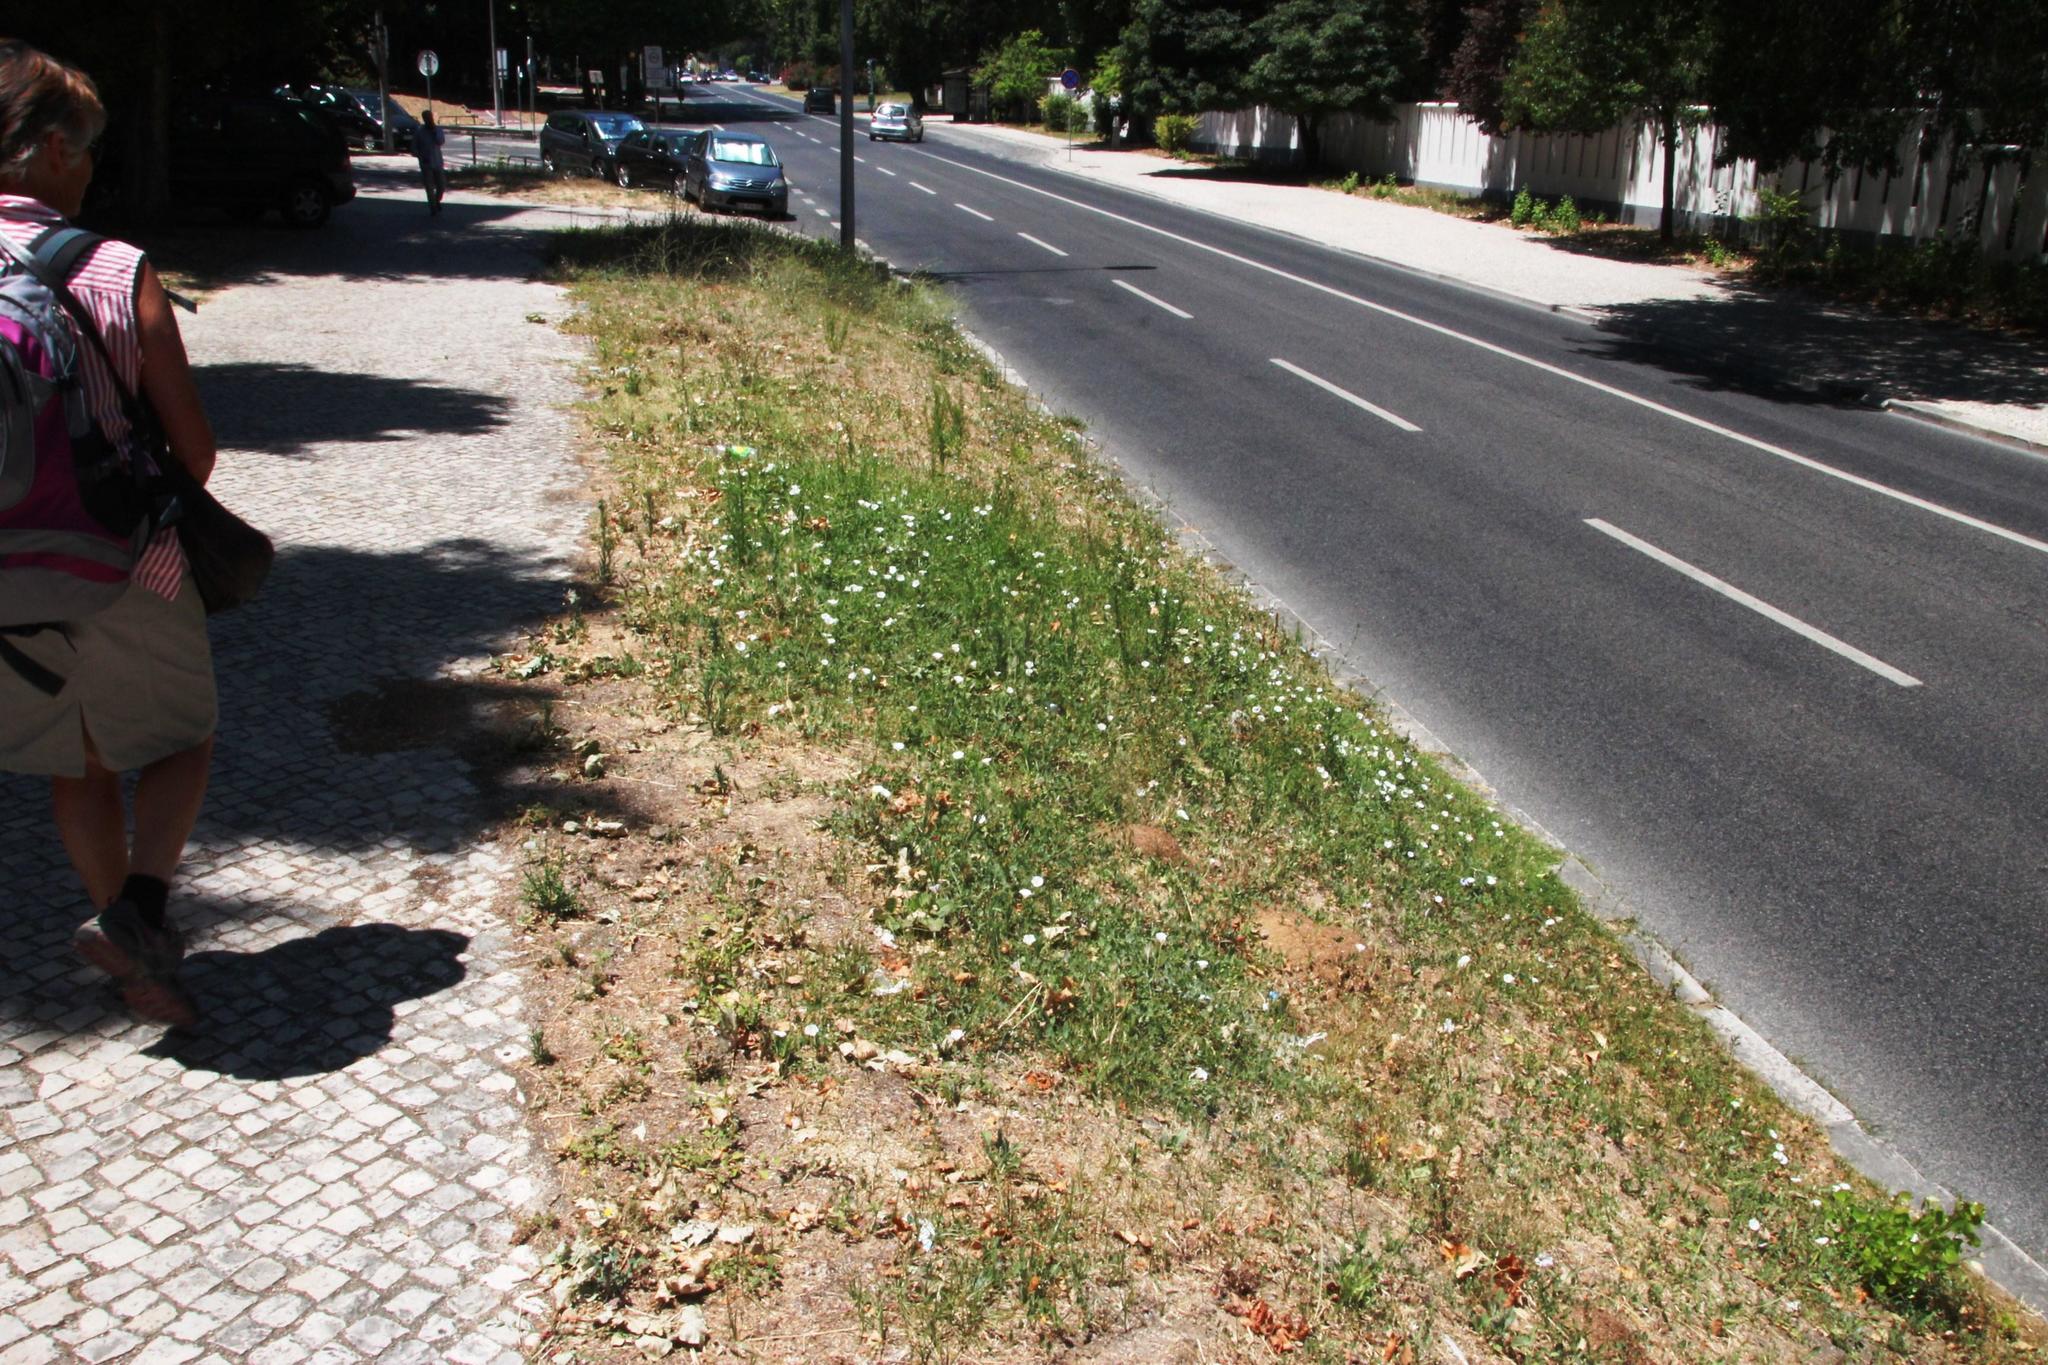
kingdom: Plantae
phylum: Tracheophyta
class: Magnoliopsida
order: Solanales
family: Convolvulaceae
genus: Convolvulus
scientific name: Convolvulus arvensis
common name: Field bindweed
